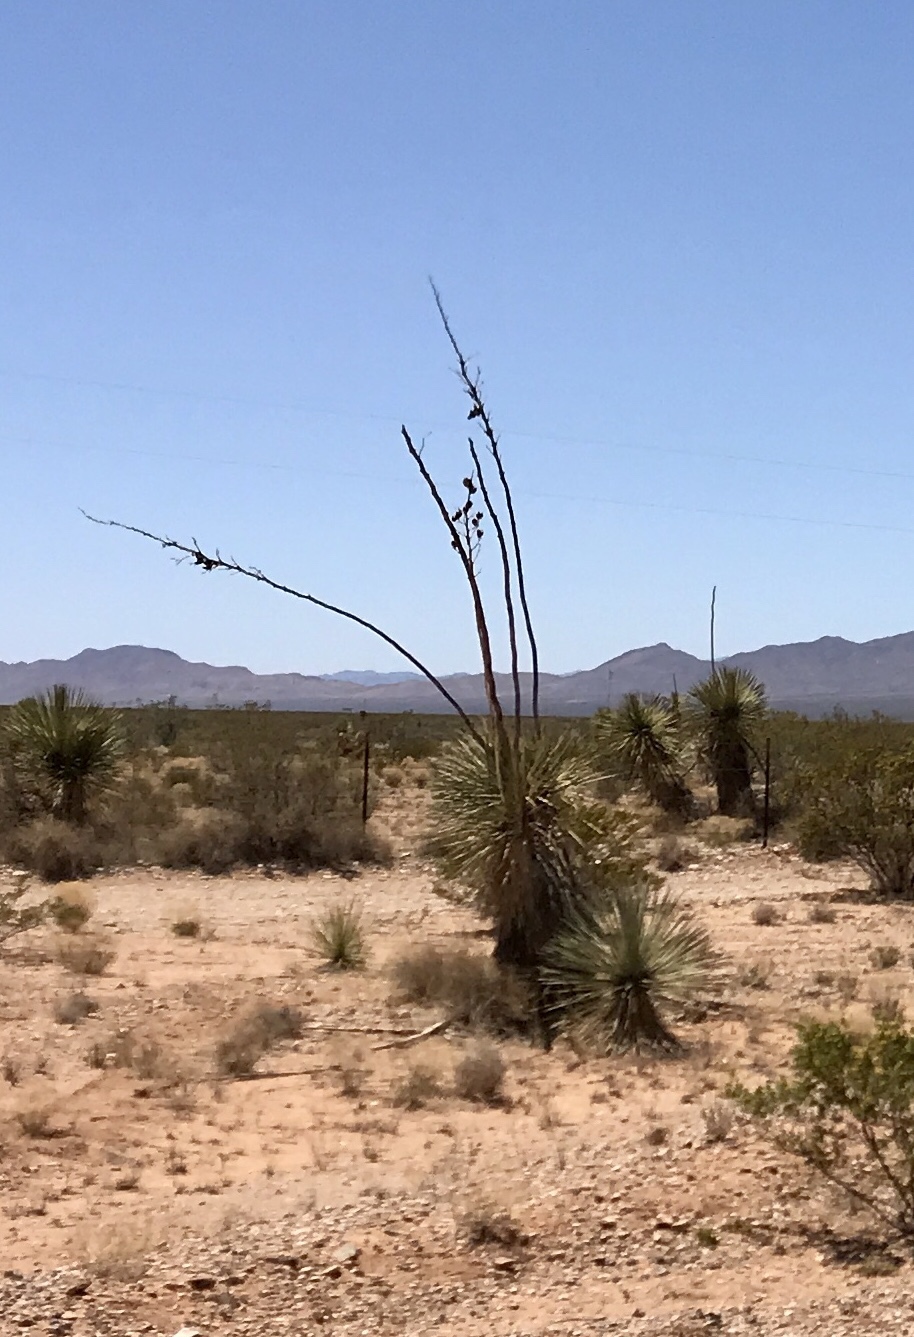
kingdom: Plantae
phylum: Tracheophyta
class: Liliopsida
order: Asparagales
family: Asparagaceae
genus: Yucca
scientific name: Yucca elata
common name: Palmella
